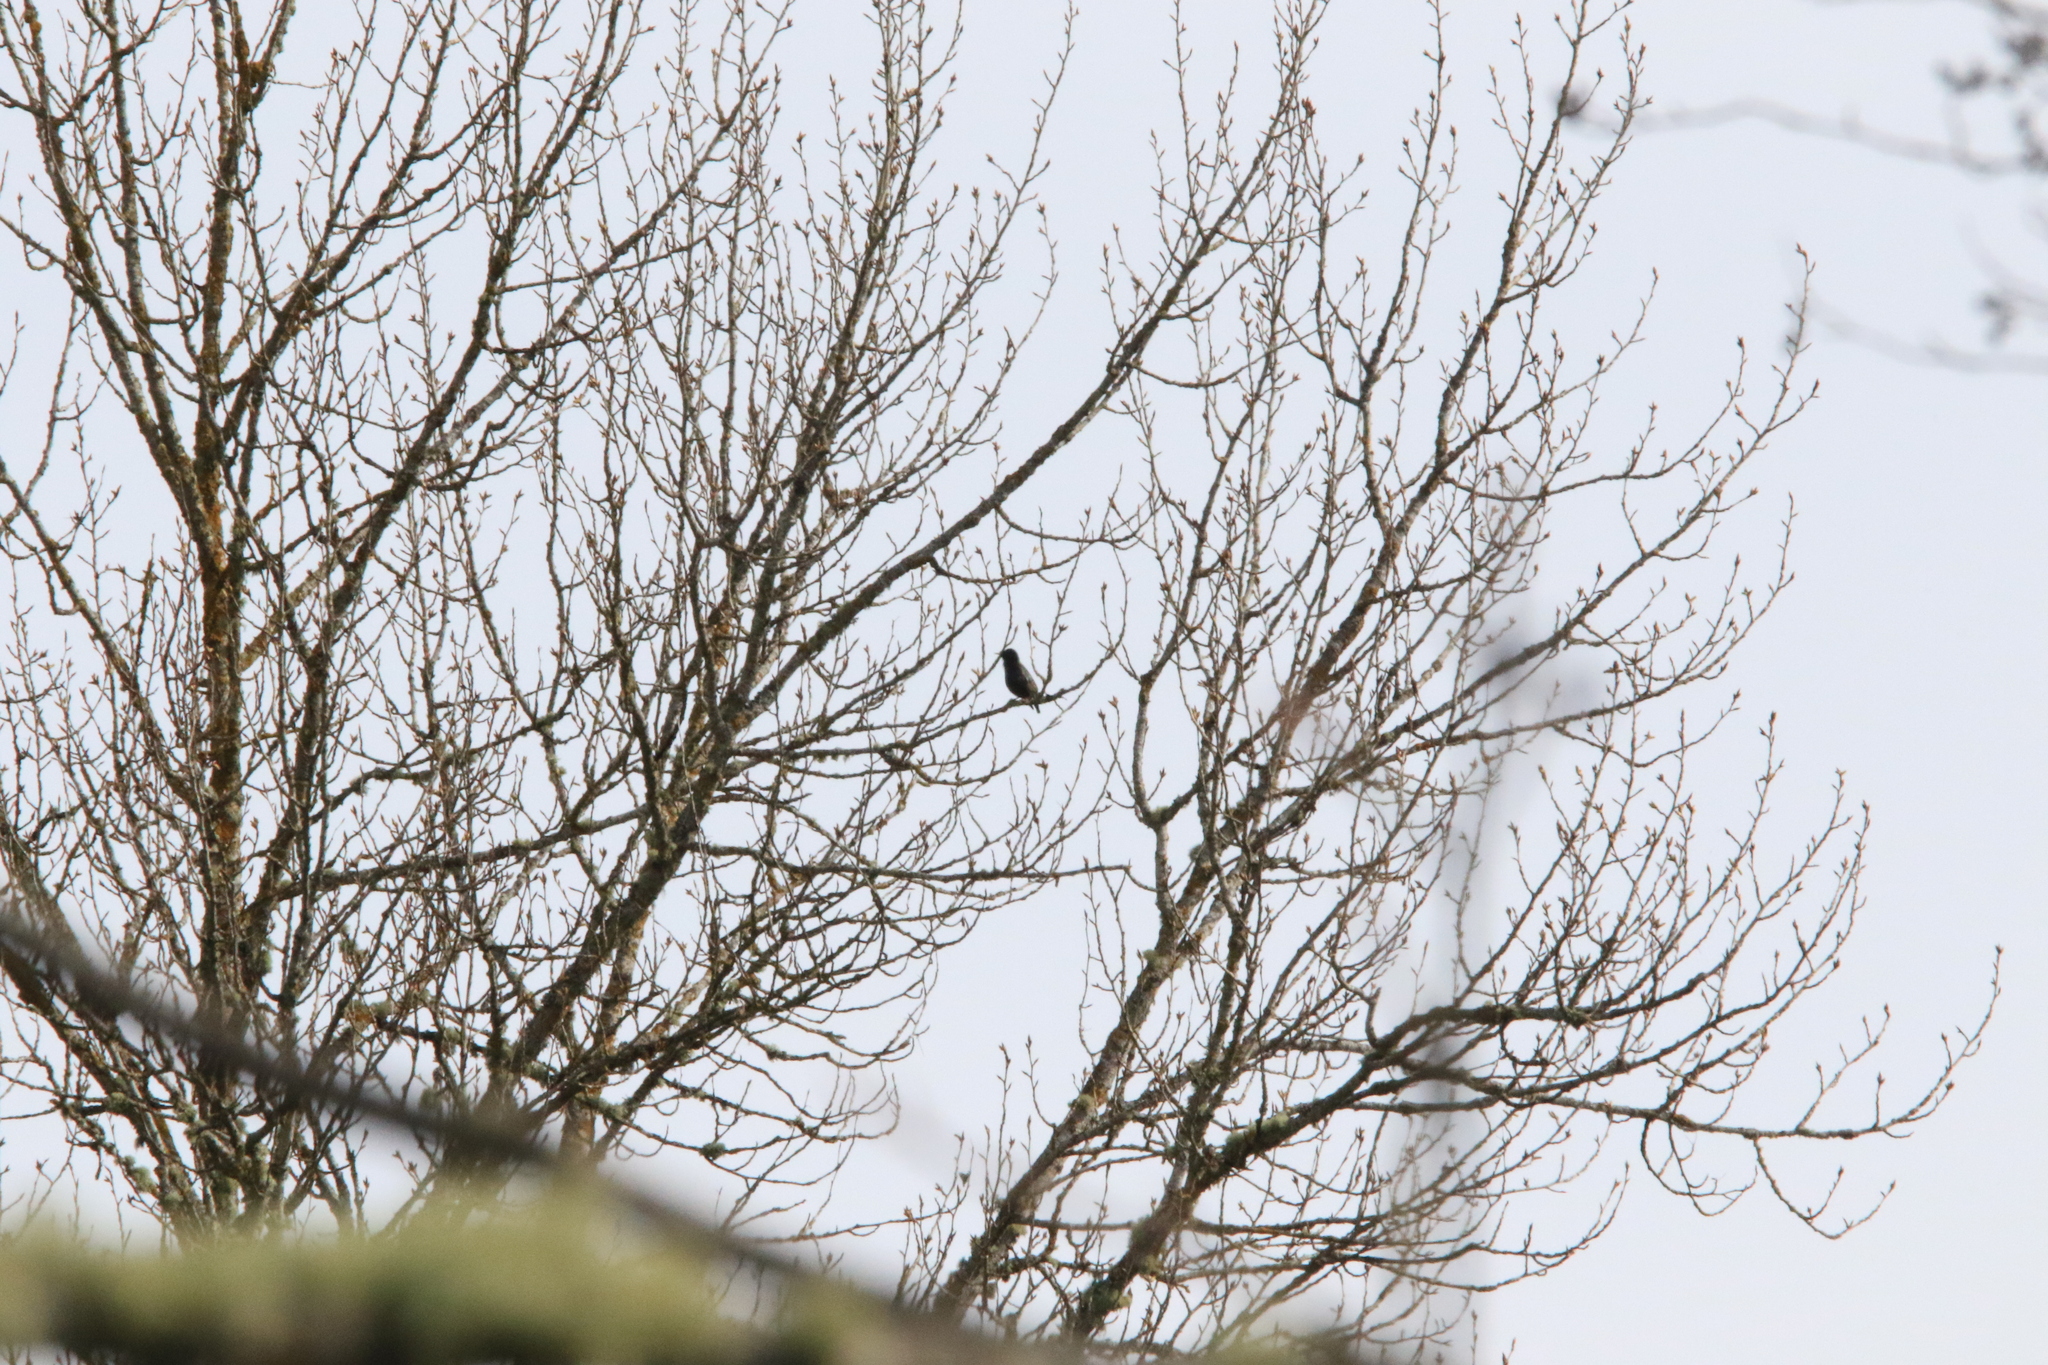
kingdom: Animalia
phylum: Chordata
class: Aves
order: Passeriformes
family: Sturnidae
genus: Sturnus
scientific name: Sturnus vulgaris
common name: Common starling
